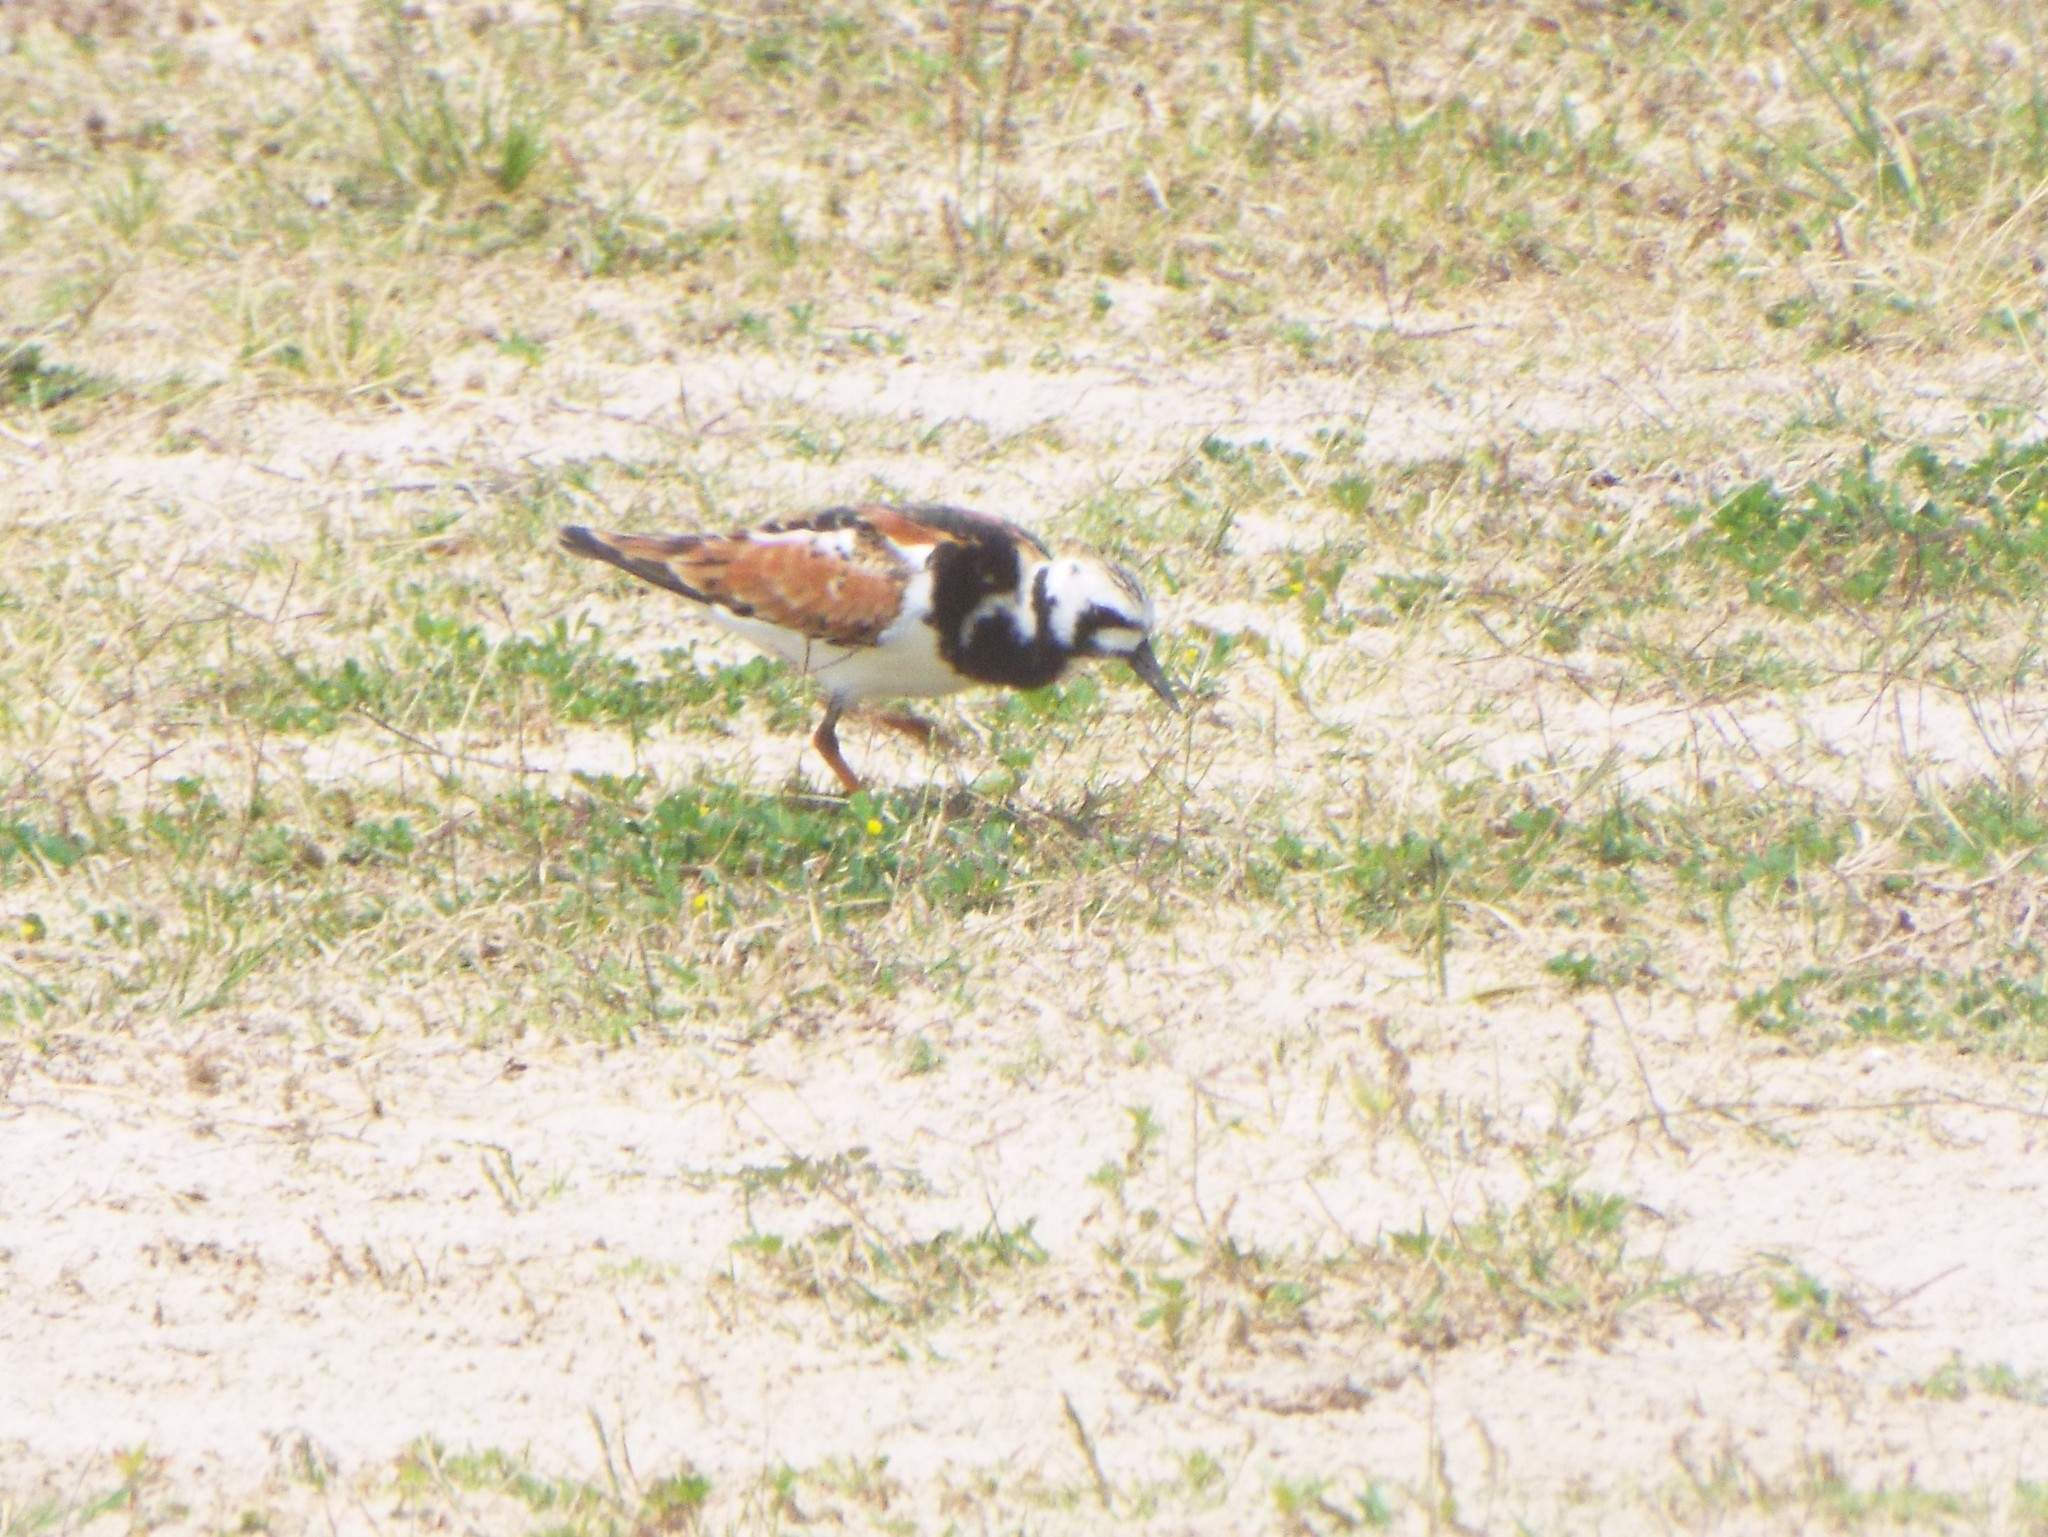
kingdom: Animalia
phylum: Chordata
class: Aves
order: Charadriiformes
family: Scolopacidae
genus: Arenaria
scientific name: Arenaria interpres
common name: Ruddy turnstone
